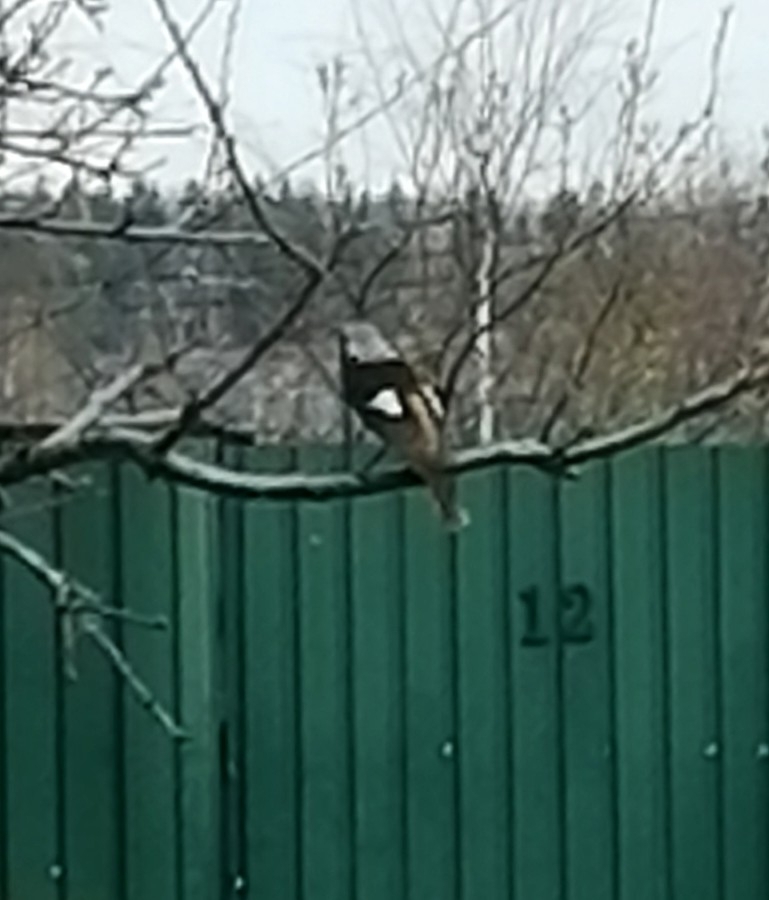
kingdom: Animalia
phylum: Chordata
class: Aves
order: Passeriformes
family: Muscicapidae
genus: Phoenicurus
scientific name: Phoenicurus auroreus
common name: Daurian redstart
